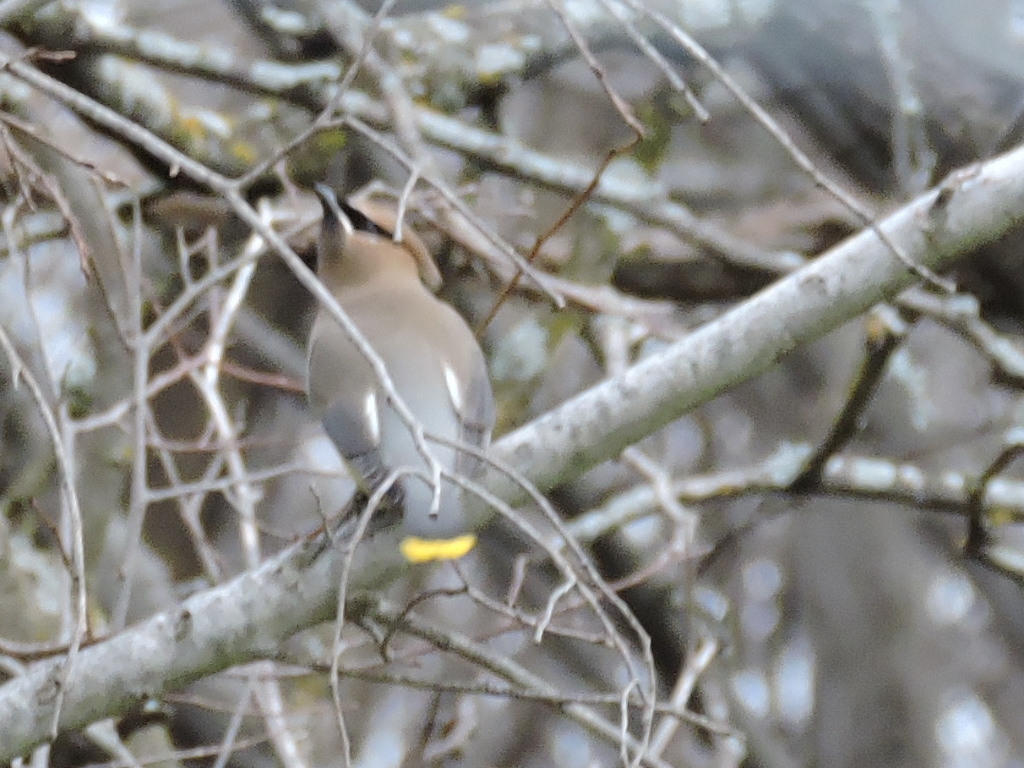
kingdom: Animalia
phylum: Chordata
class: Aves
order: Passeriformes
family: Bombycillidae
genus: Bombycilla
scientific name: Bombycilla cedrorum
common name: Cedar waxwing
